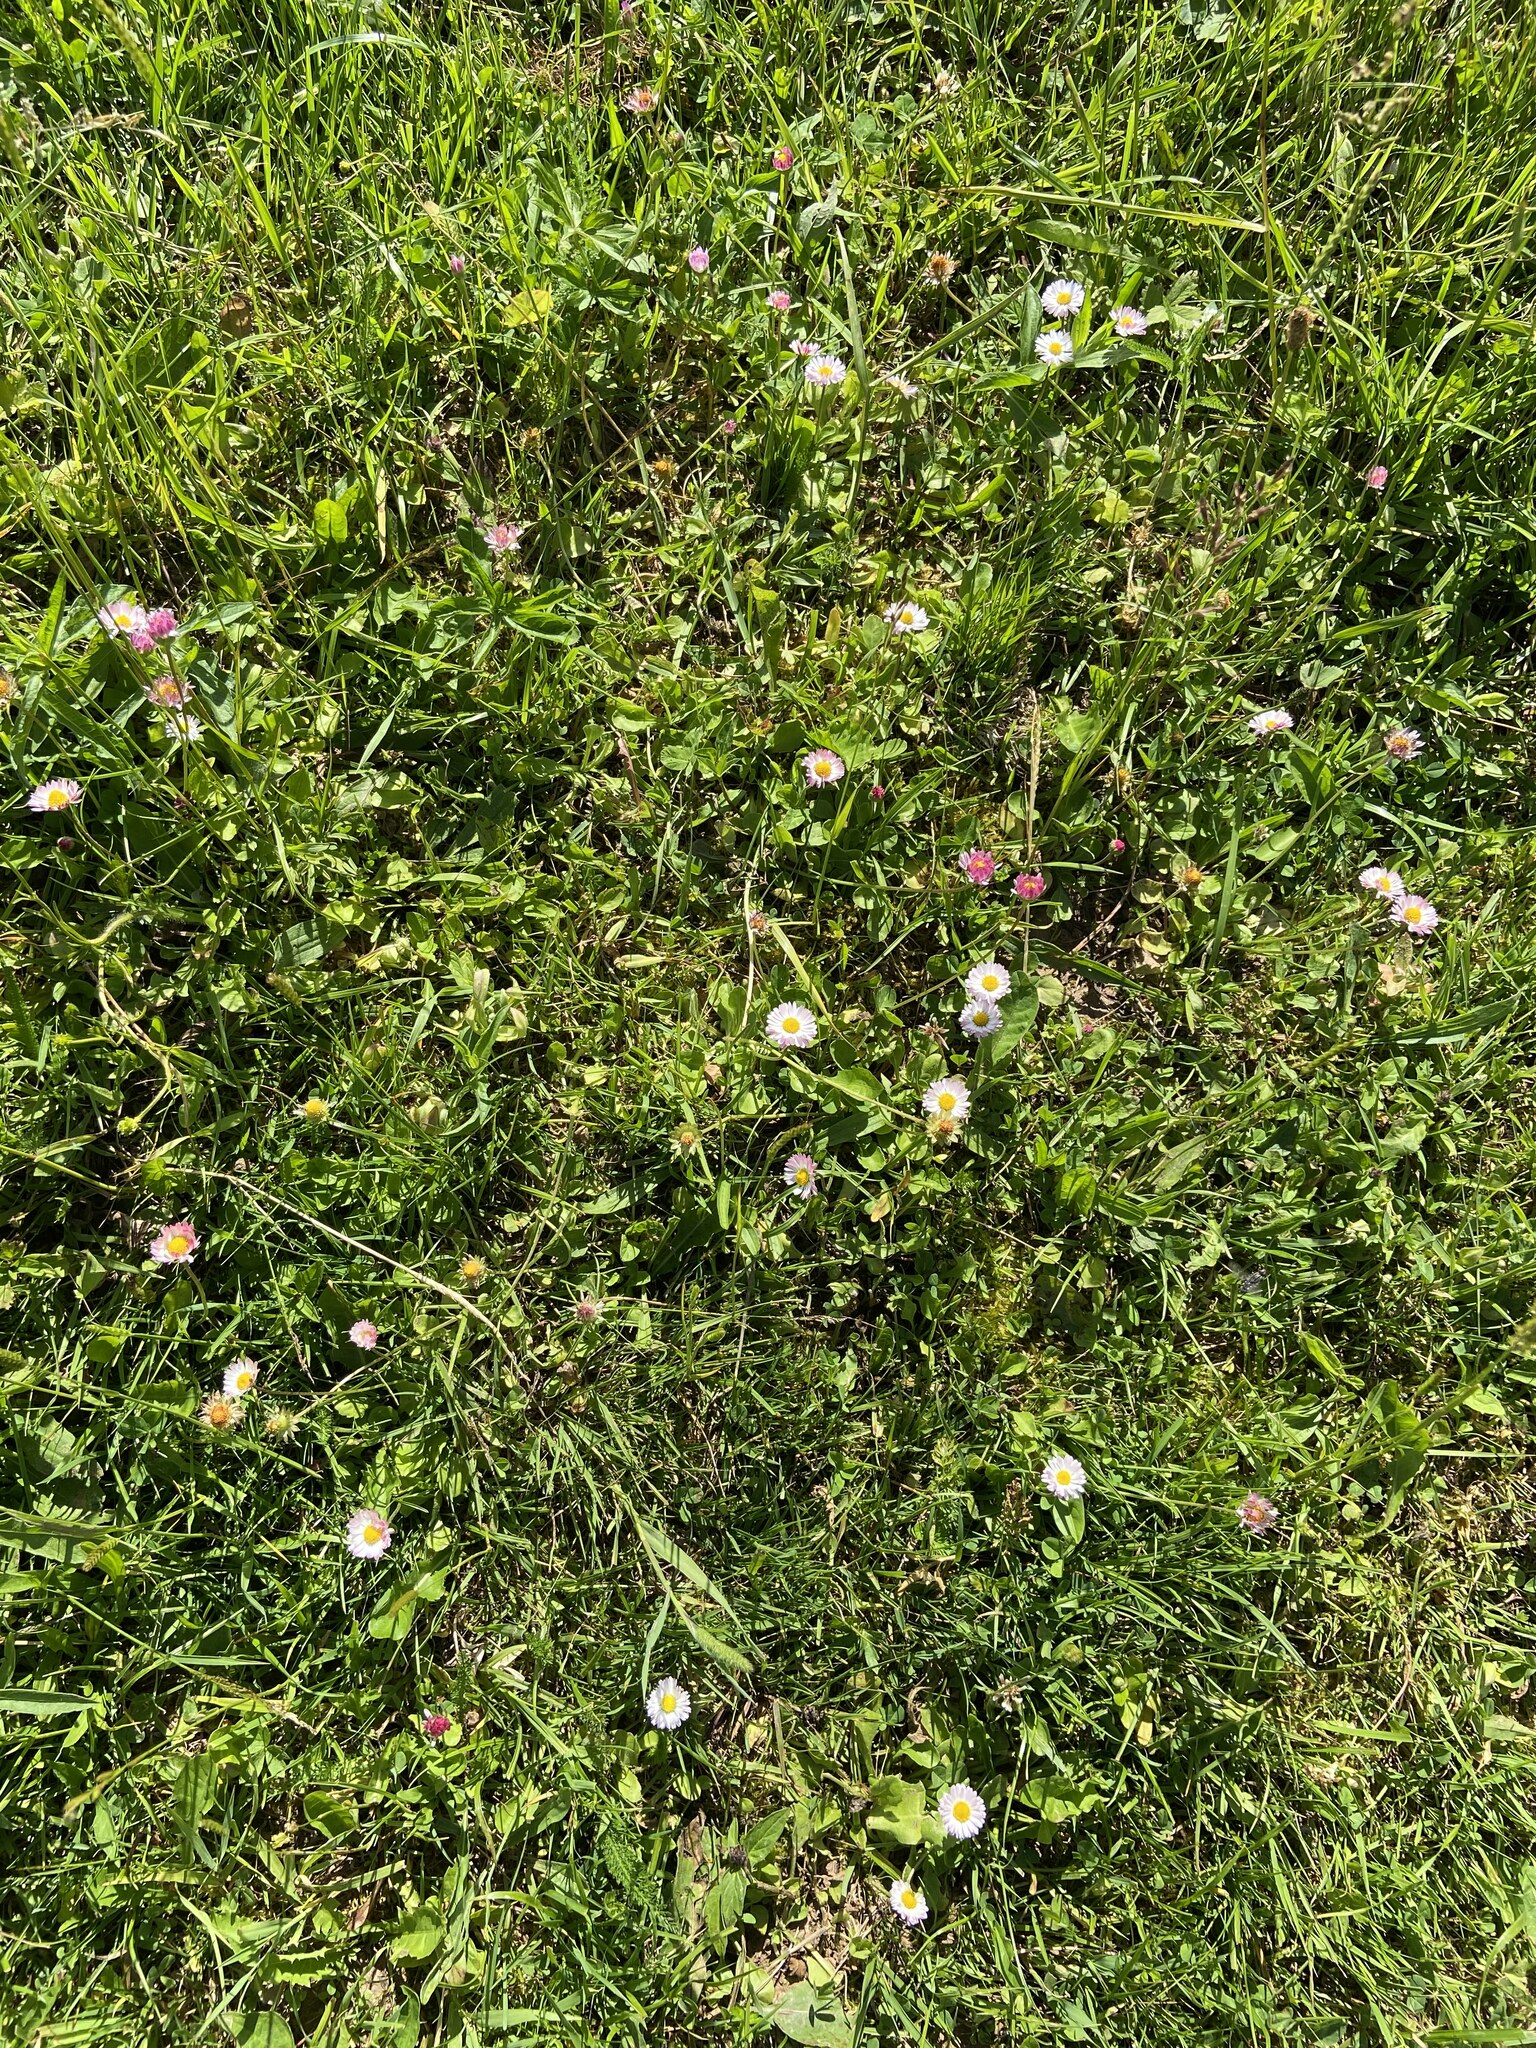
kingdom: Plantae
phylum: Tracheophyta
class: Magnoliopsida
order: Asterales
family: Asteraceae
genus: Bellis
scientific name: Bellis perennis
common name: Lawndaisy
